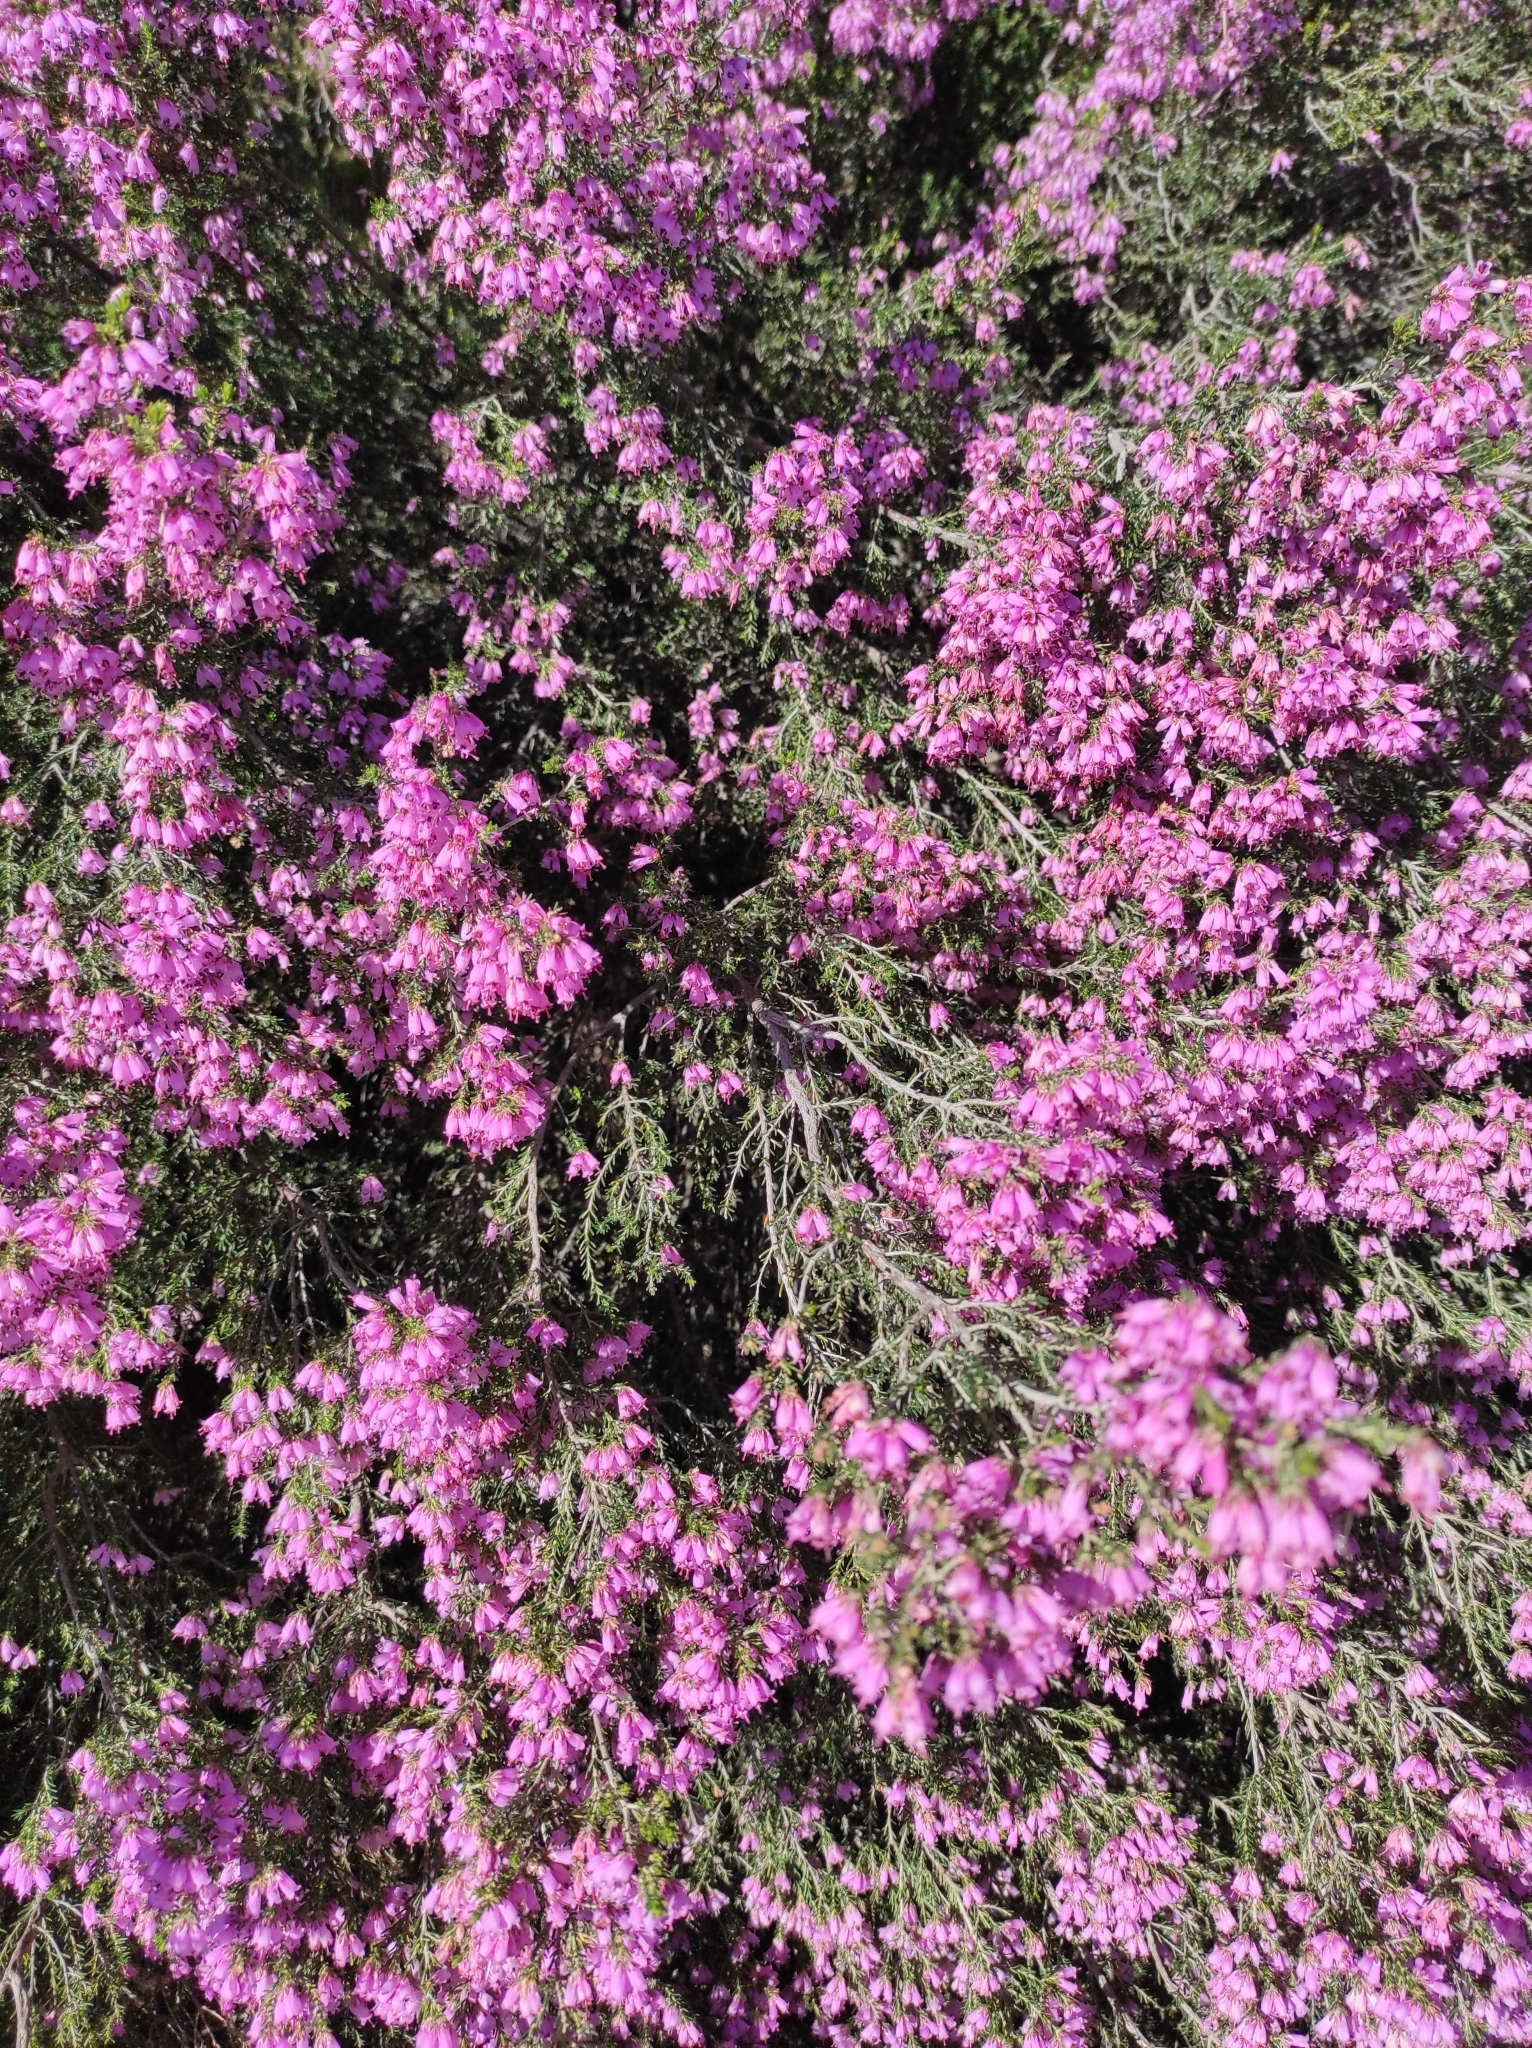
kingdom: Plantae
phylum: Tracheophyta
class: Magnoliopsida
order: Ericales
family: Ericaceae
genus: Erica
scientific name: Erica australis
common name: Spanish heath
